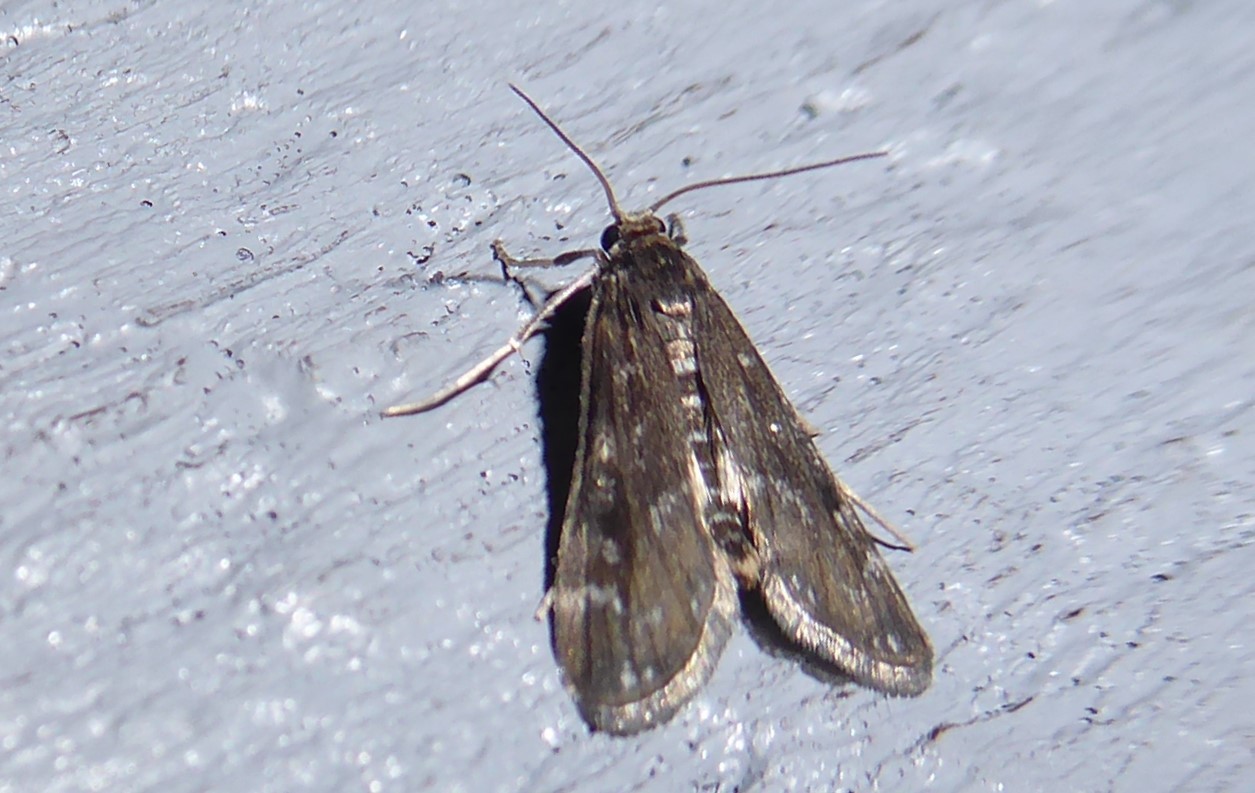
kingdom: Animalia
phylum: Arthropoda
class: Insecta
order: Lepidoptera
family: Crambidae
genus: Hygraula
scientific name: Hygraula nitens
